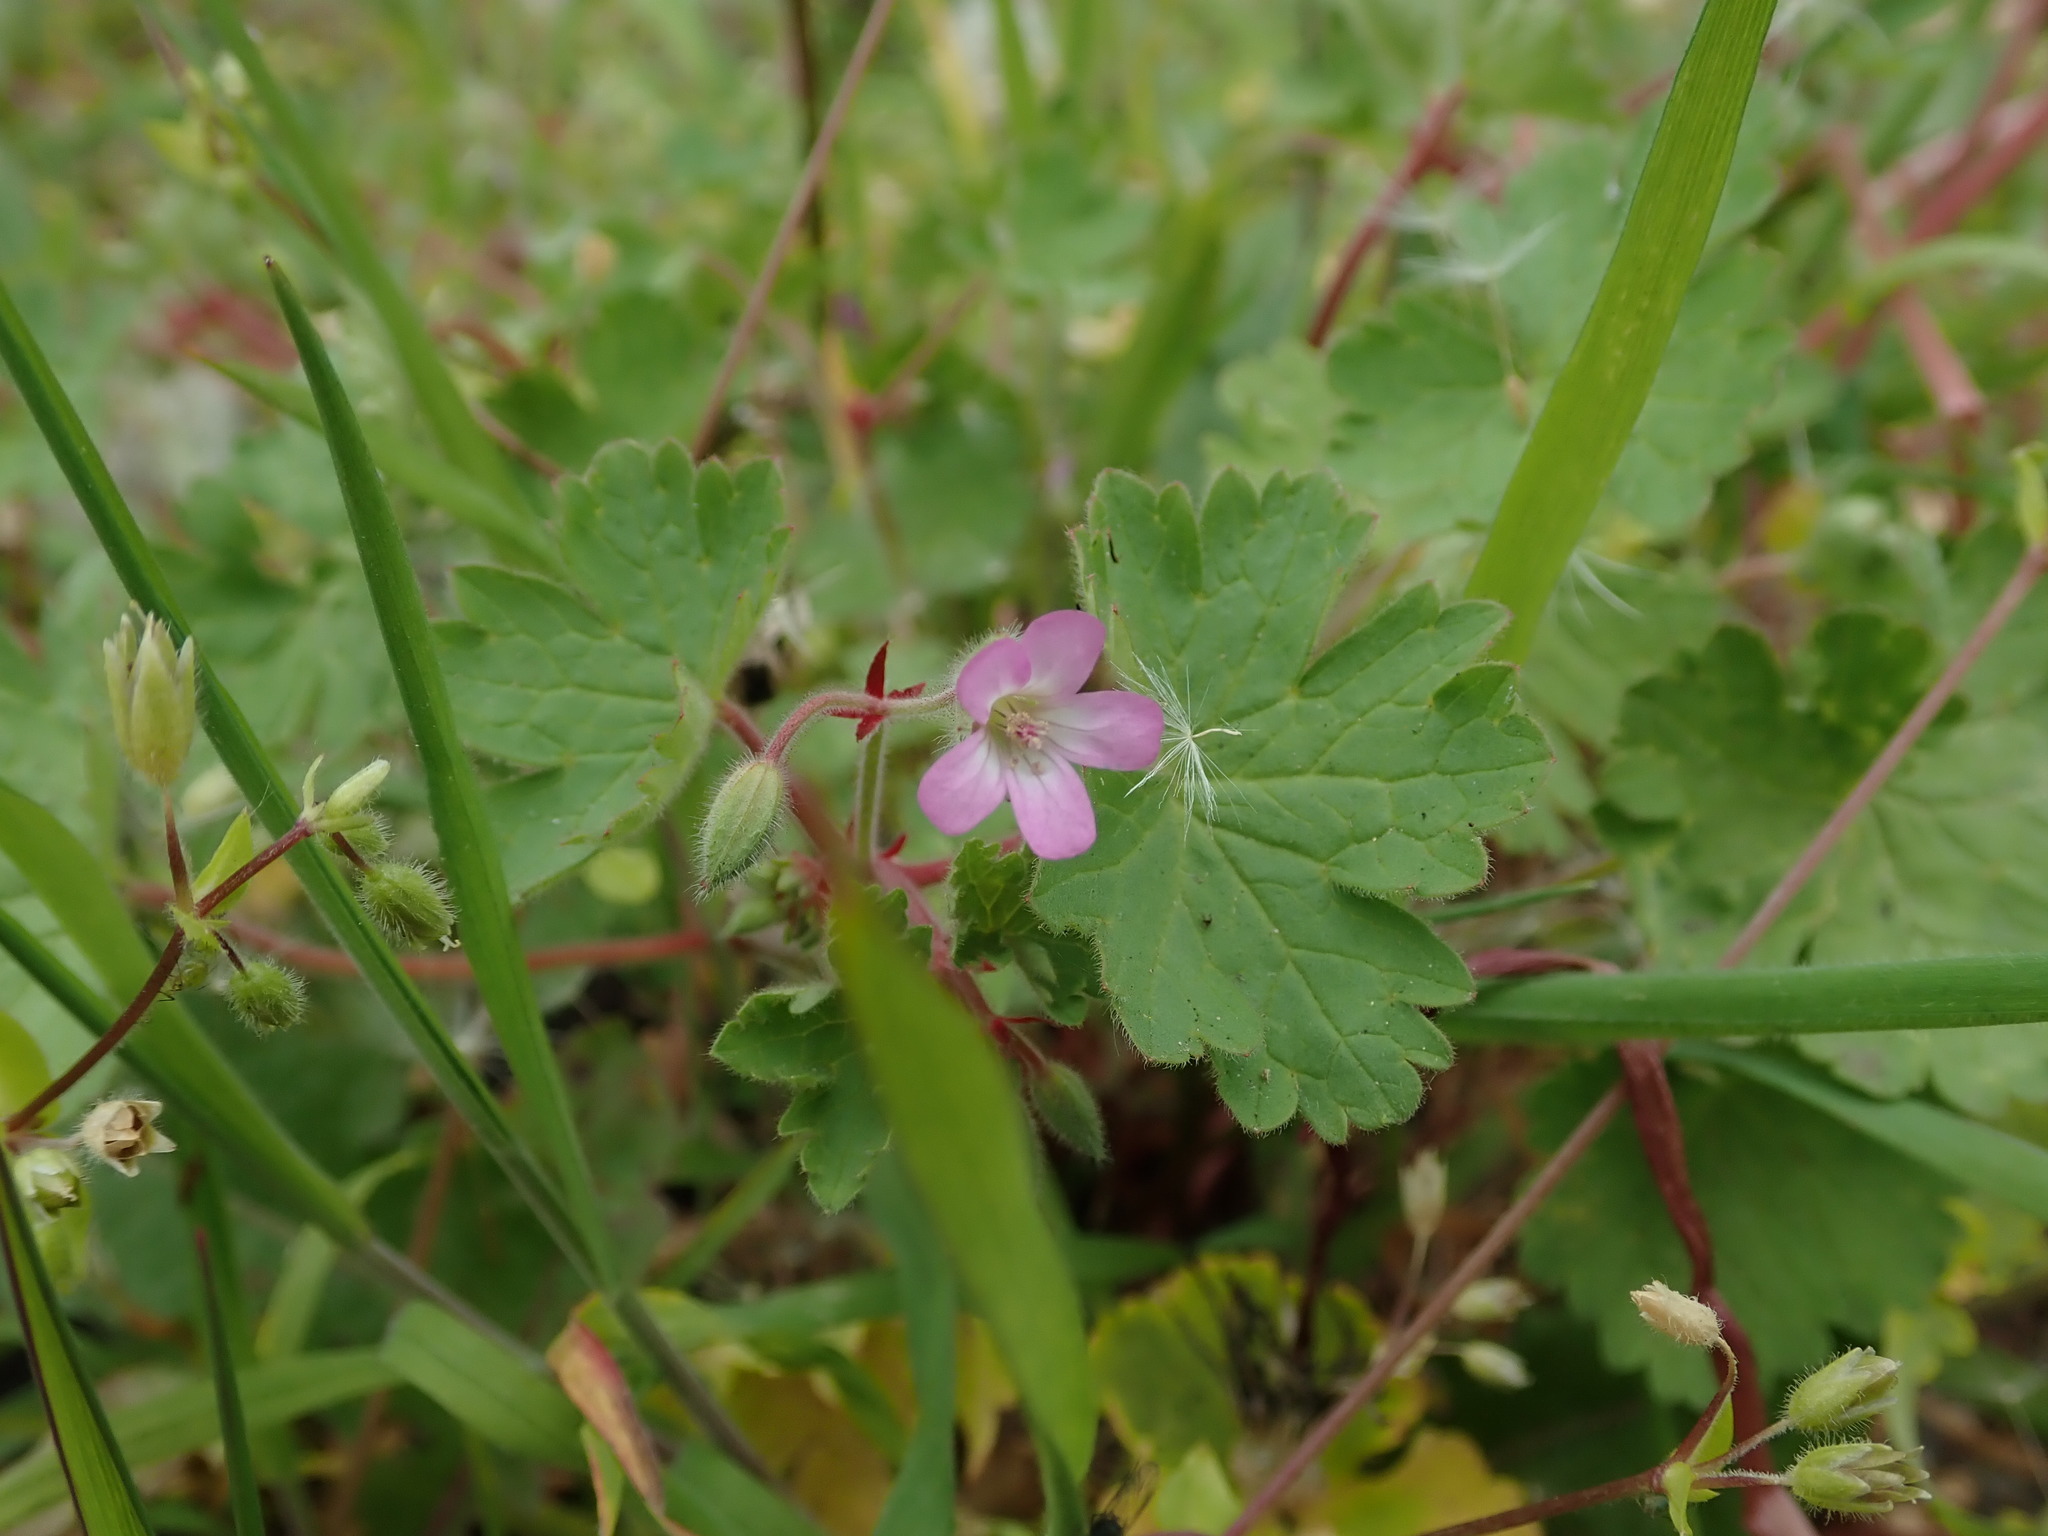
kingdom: Plantae
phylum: Tracheophyta
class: Magnoliopsida
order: Geraniales
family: Geraniaceae
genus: Geranium
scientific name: Geranium rotundifolium
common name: Round-leaved crane's-bill
